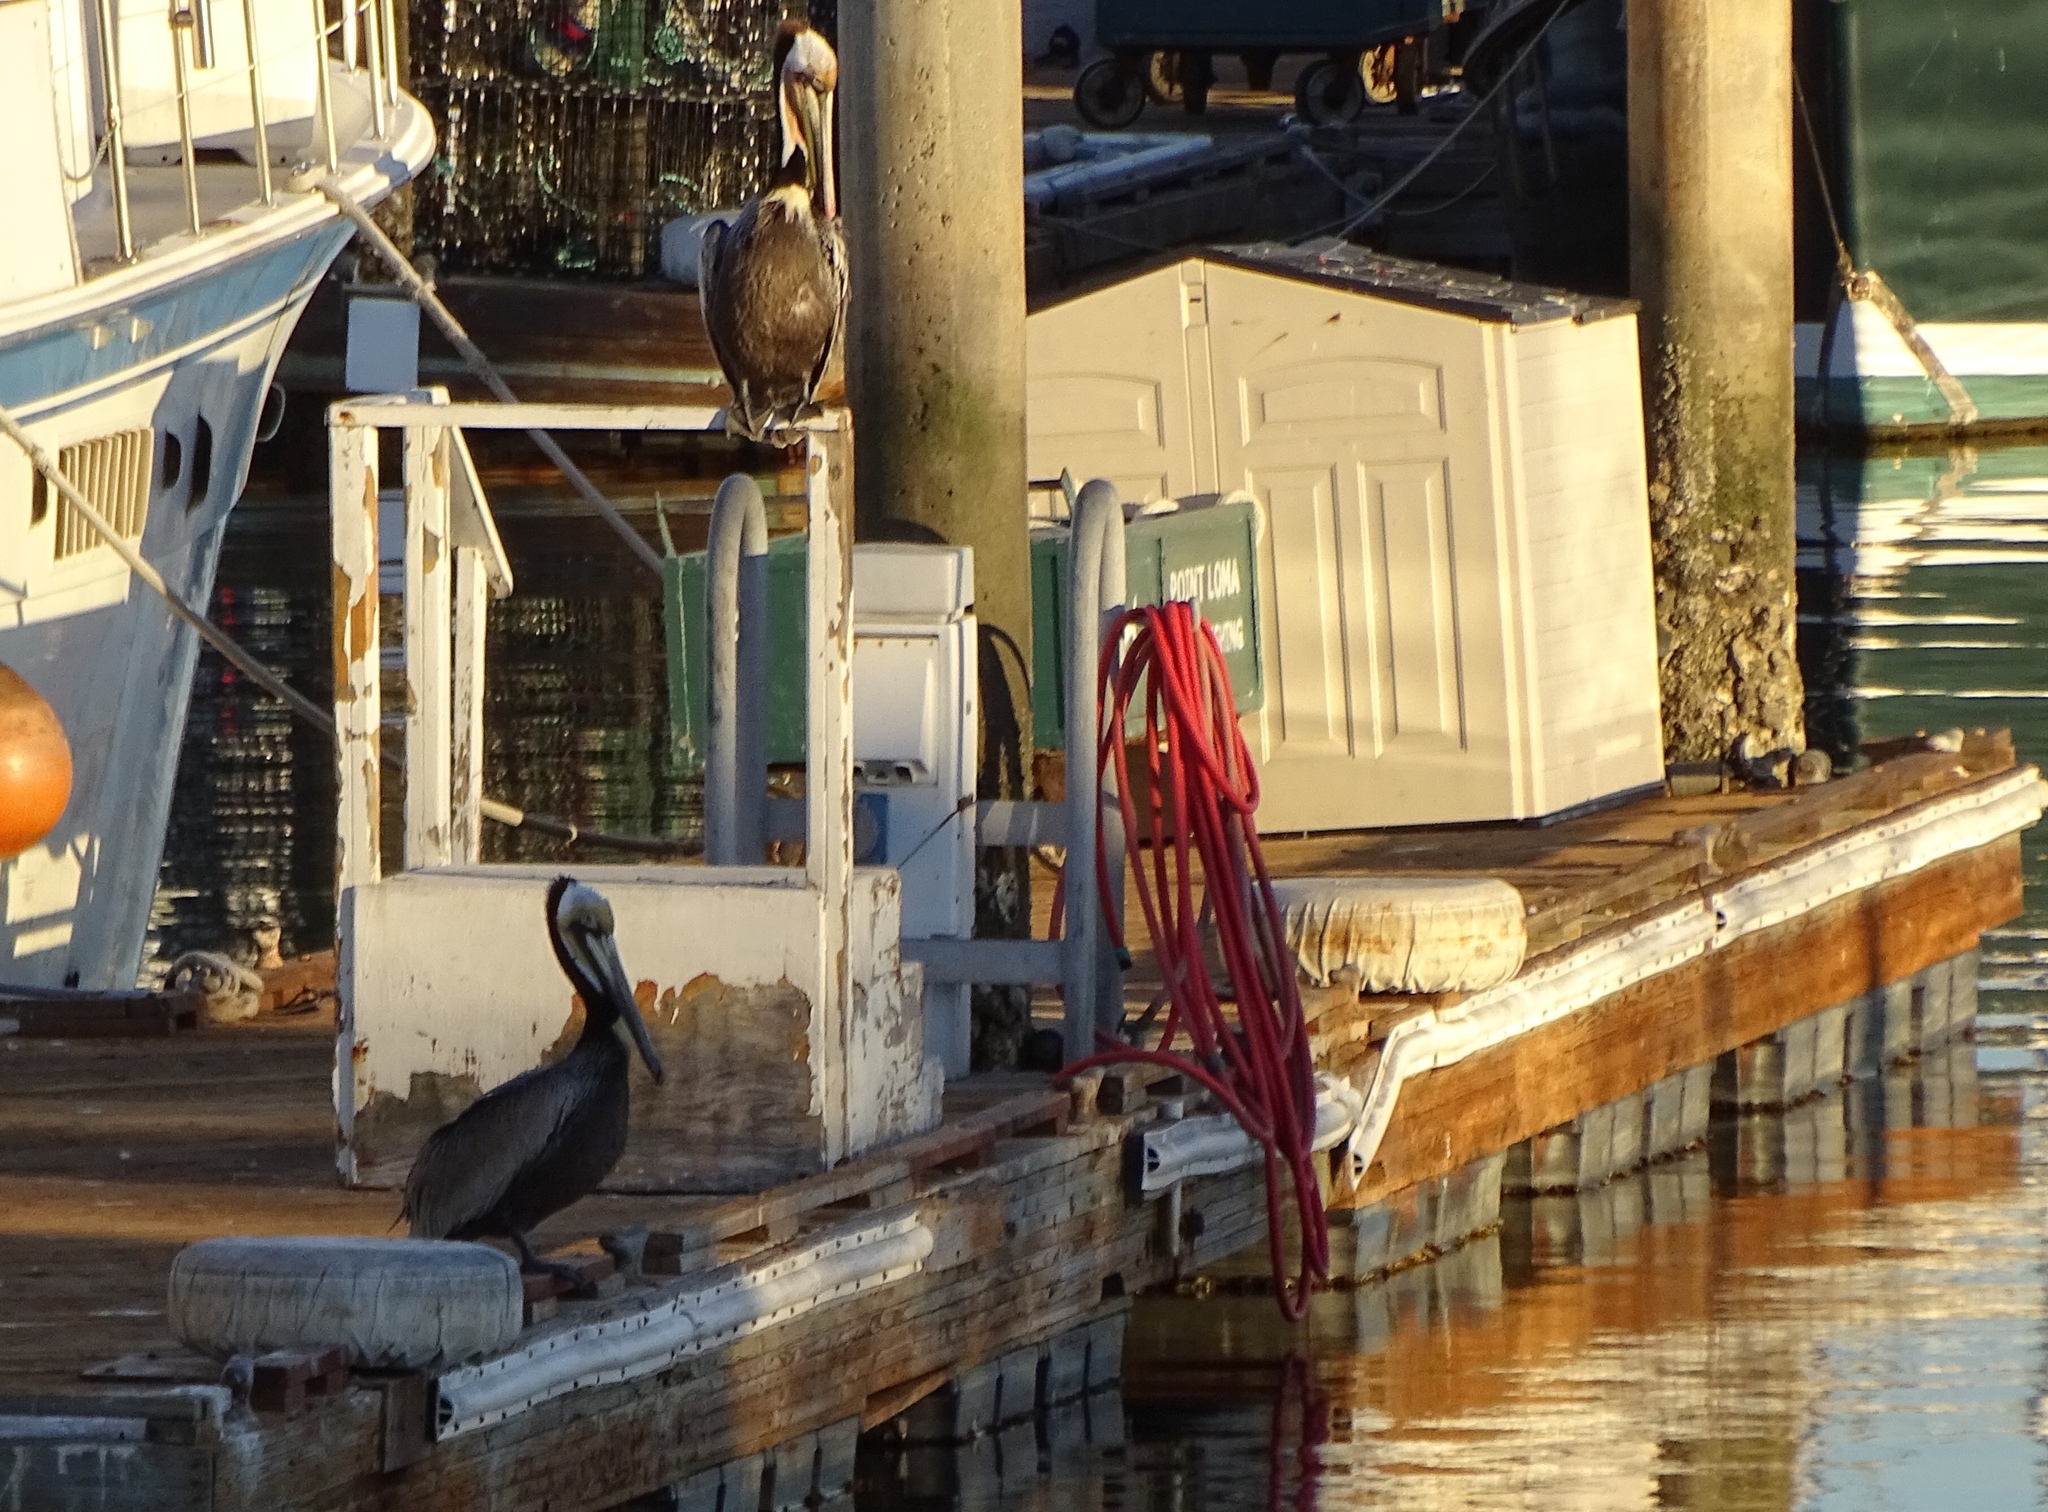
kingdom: Animalia
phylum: Chordata
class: Aves
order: Pelecaniformes
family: Pelecanidae
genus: Pelecanus
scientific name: Pelecanus occidentalis
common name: Brown pelican
